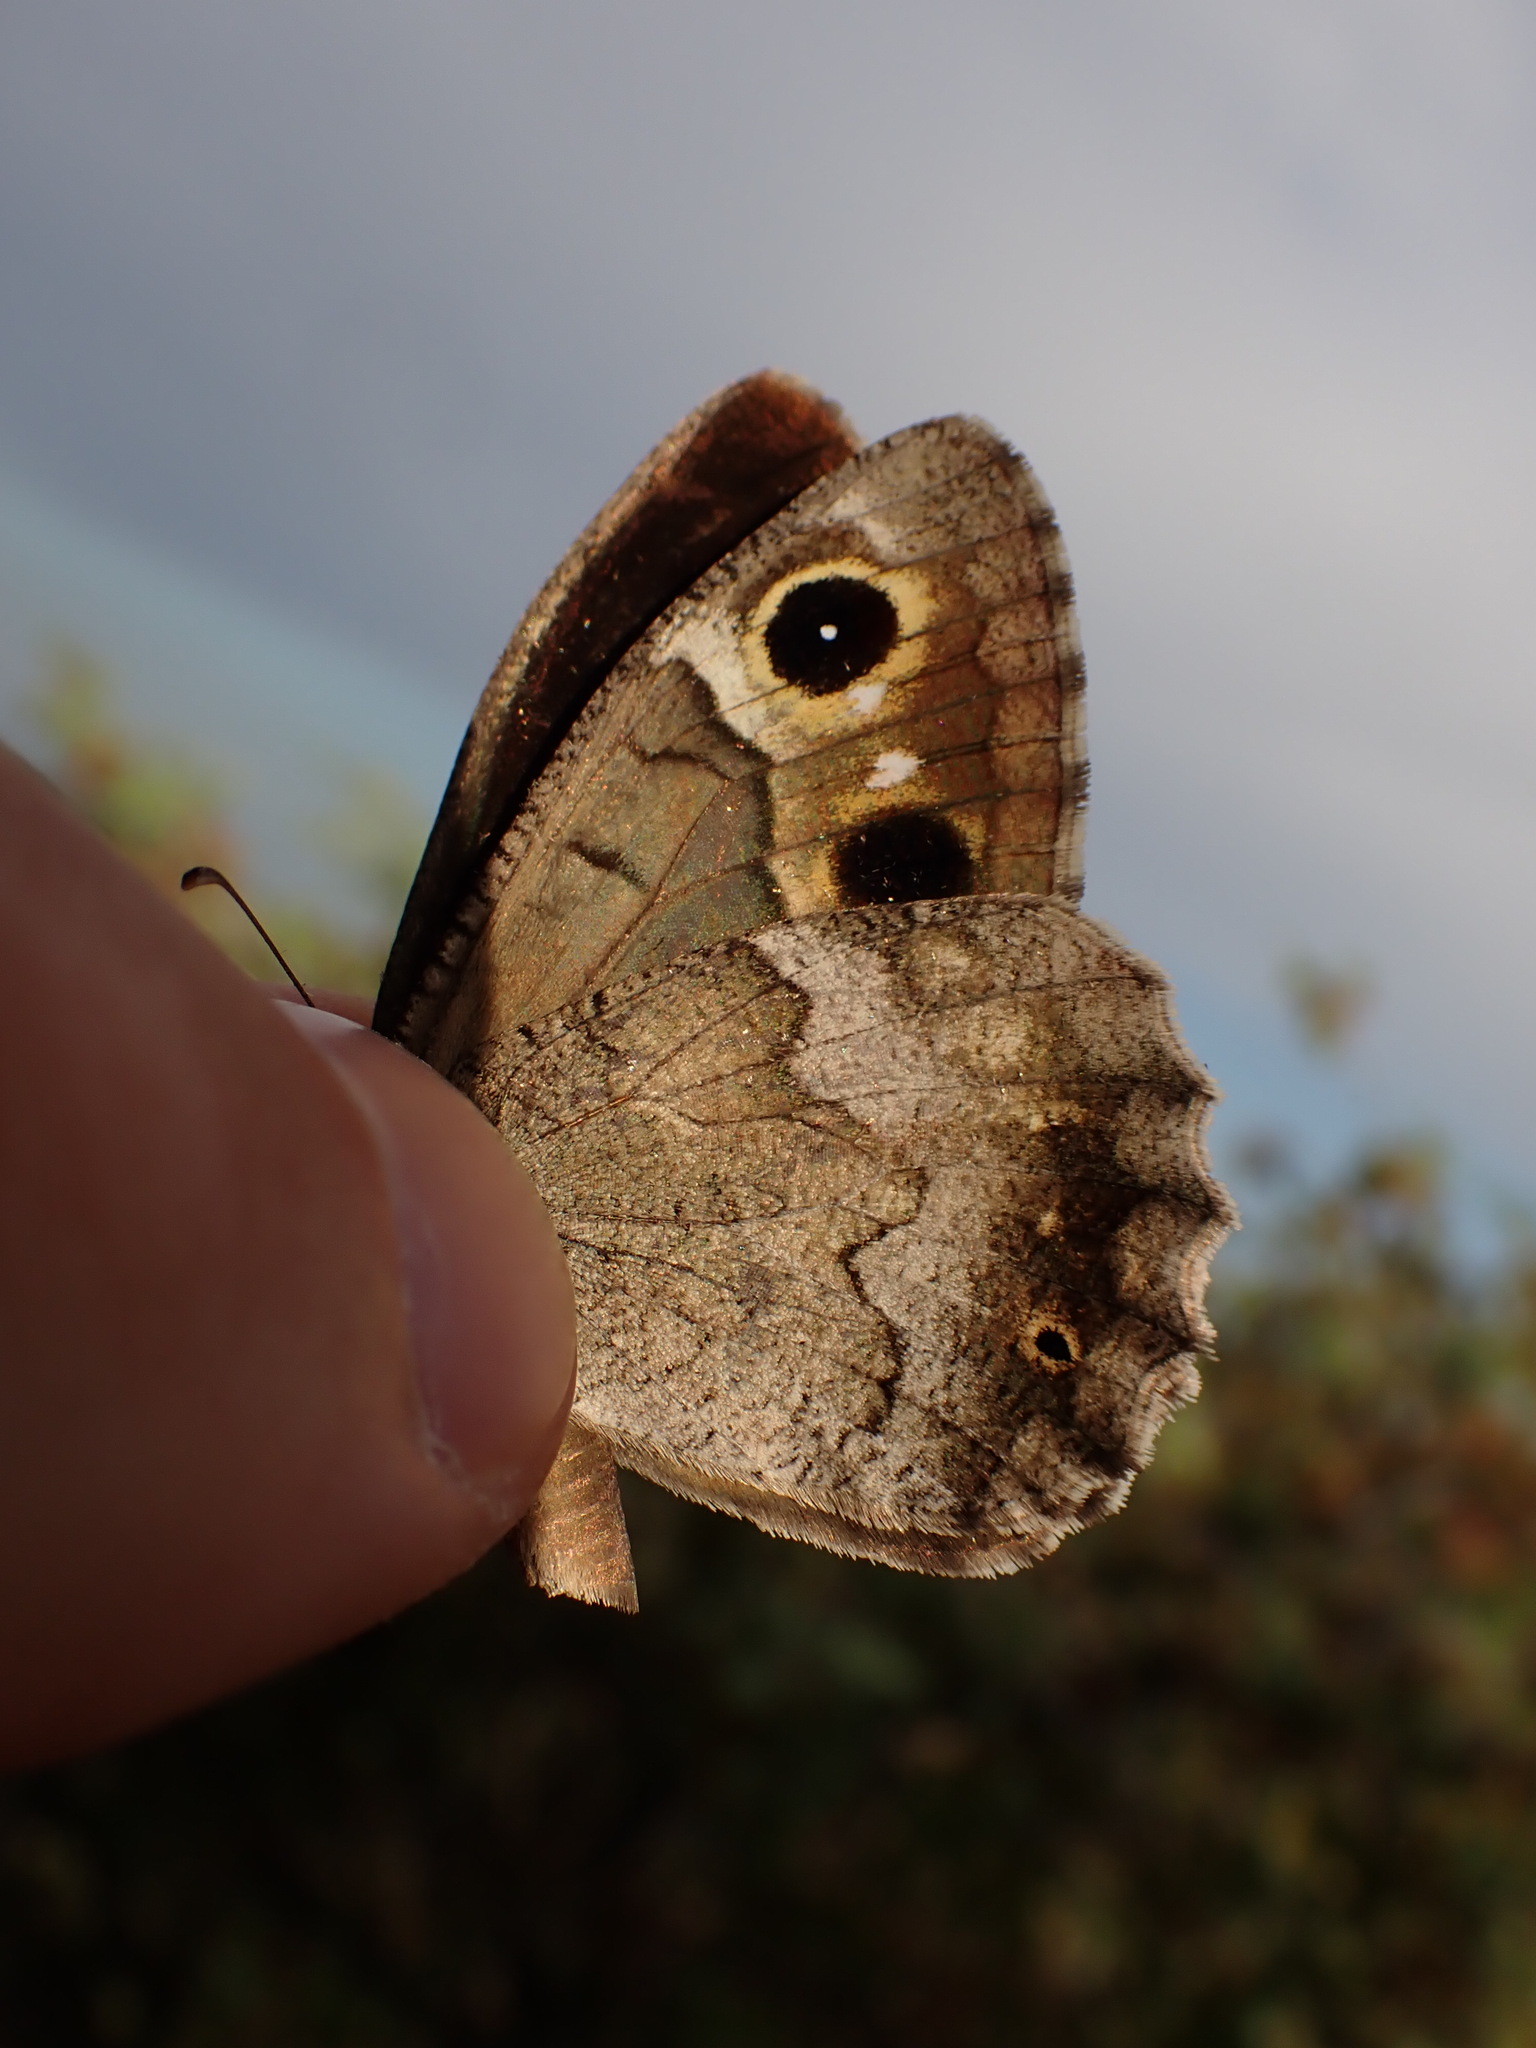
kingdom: Animalia
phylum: Arthropoda
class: Insecta
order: Lepidoptera
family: Nymphalidae
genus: Hipparchia
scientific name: Hipparchia statilinus
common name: Tree grayling
